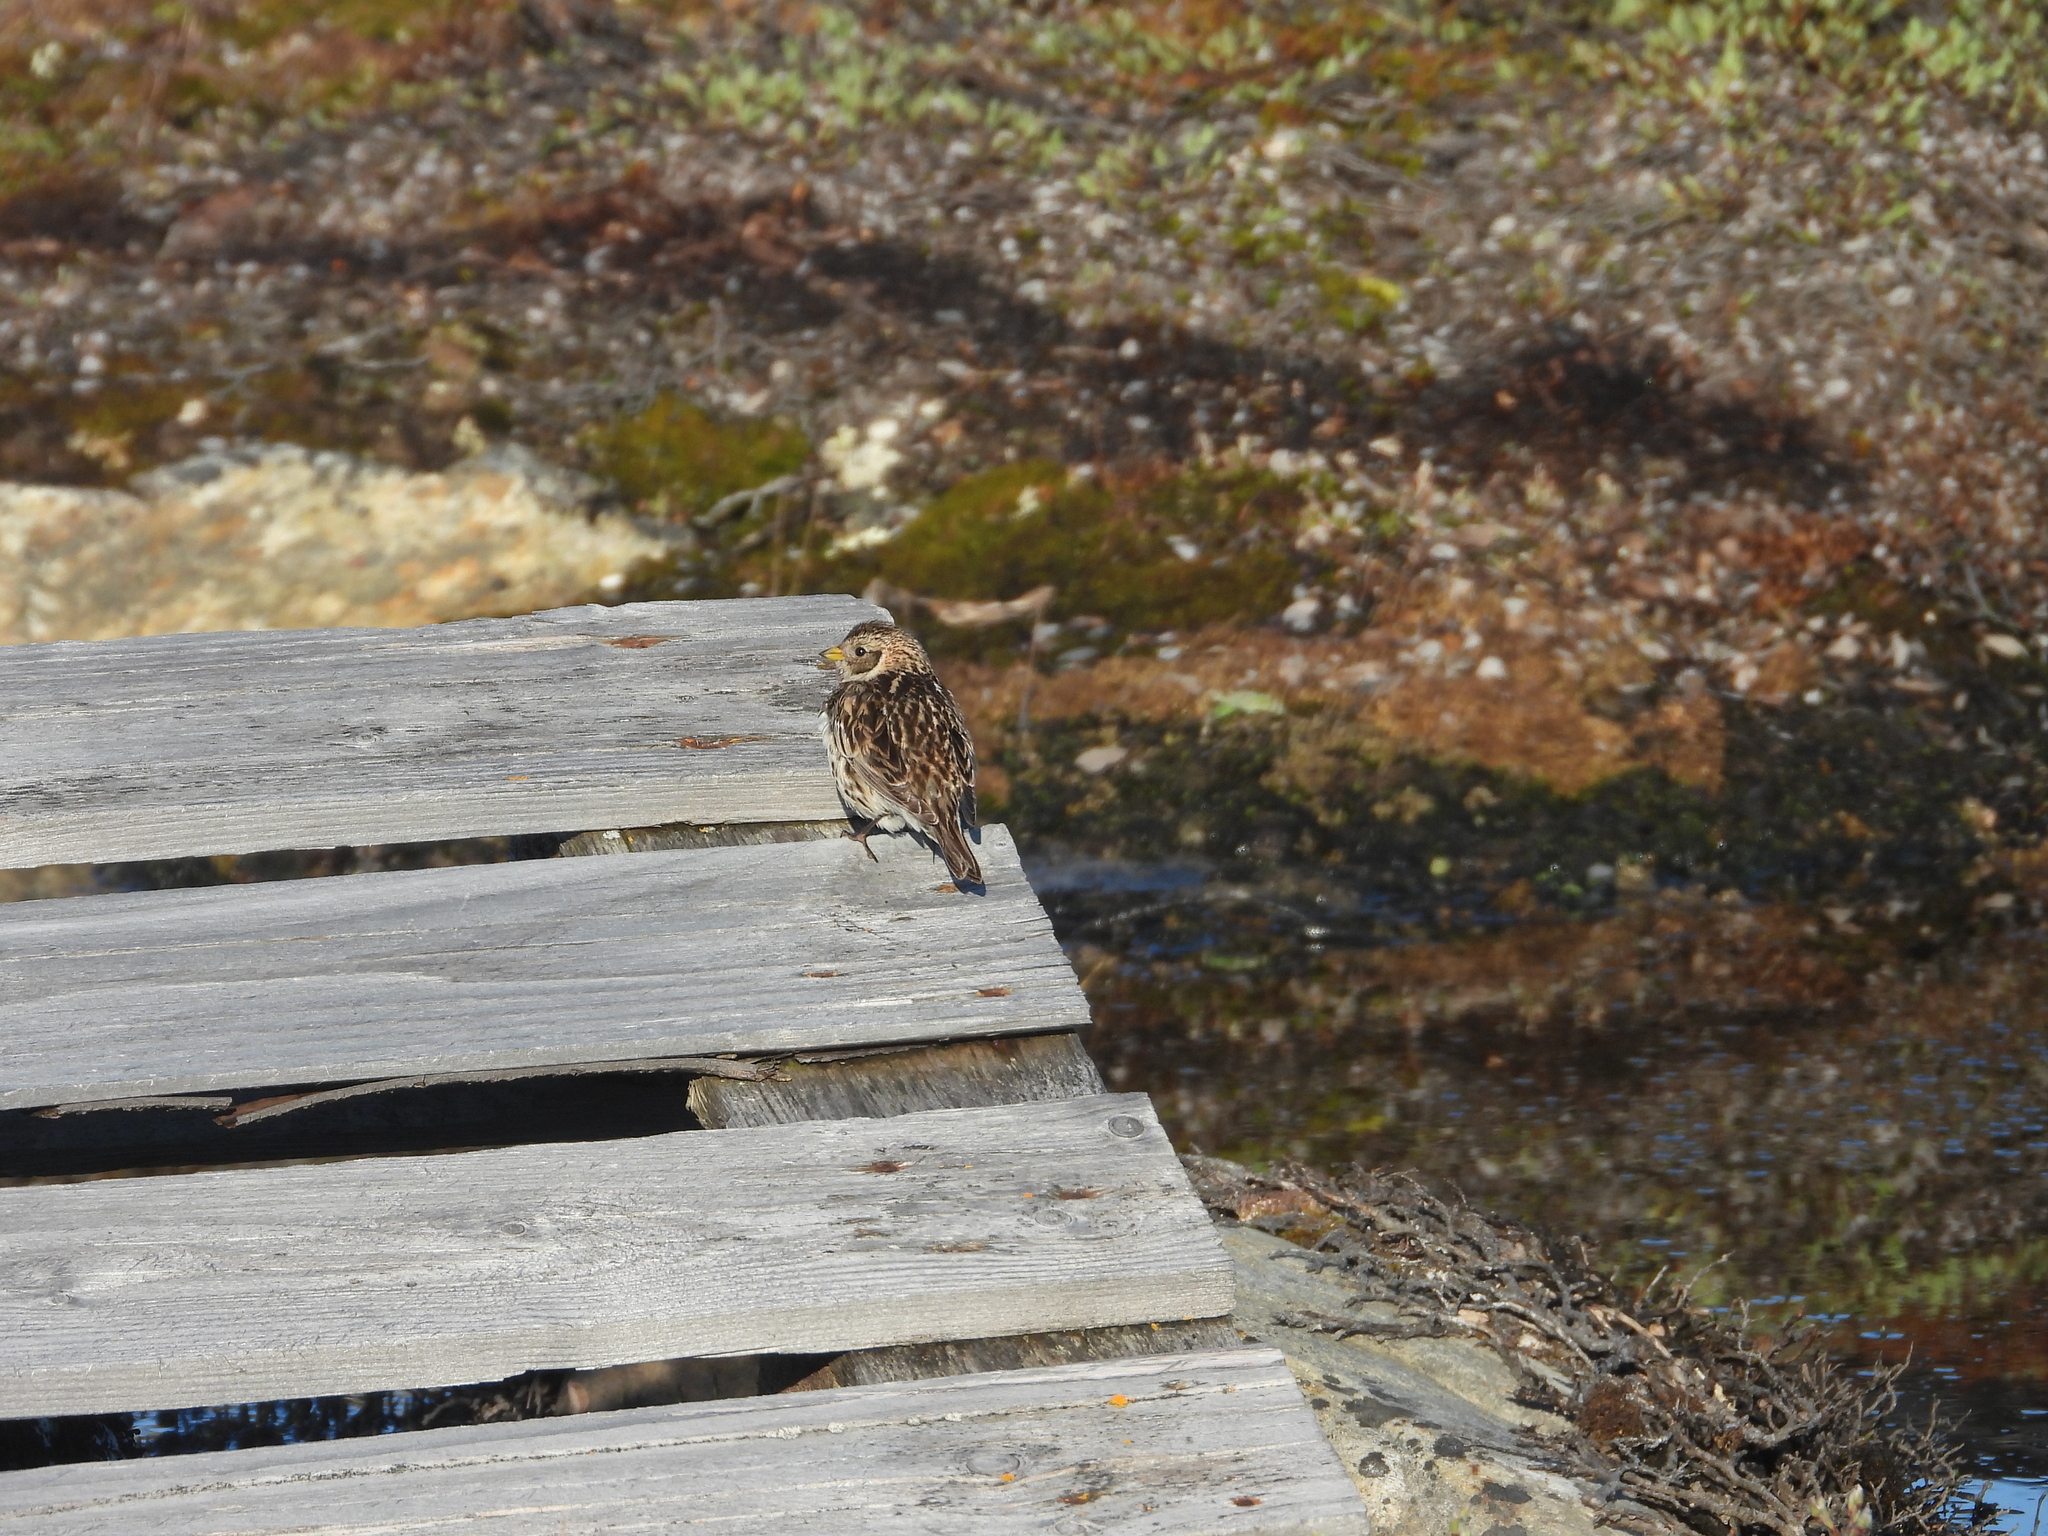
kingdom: Animalia
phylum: Chordata
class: Aves
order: Passeriformes
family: Calcariidae
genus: Calcarius
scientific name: Calcarius lapponicus
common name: Lapland longspur
